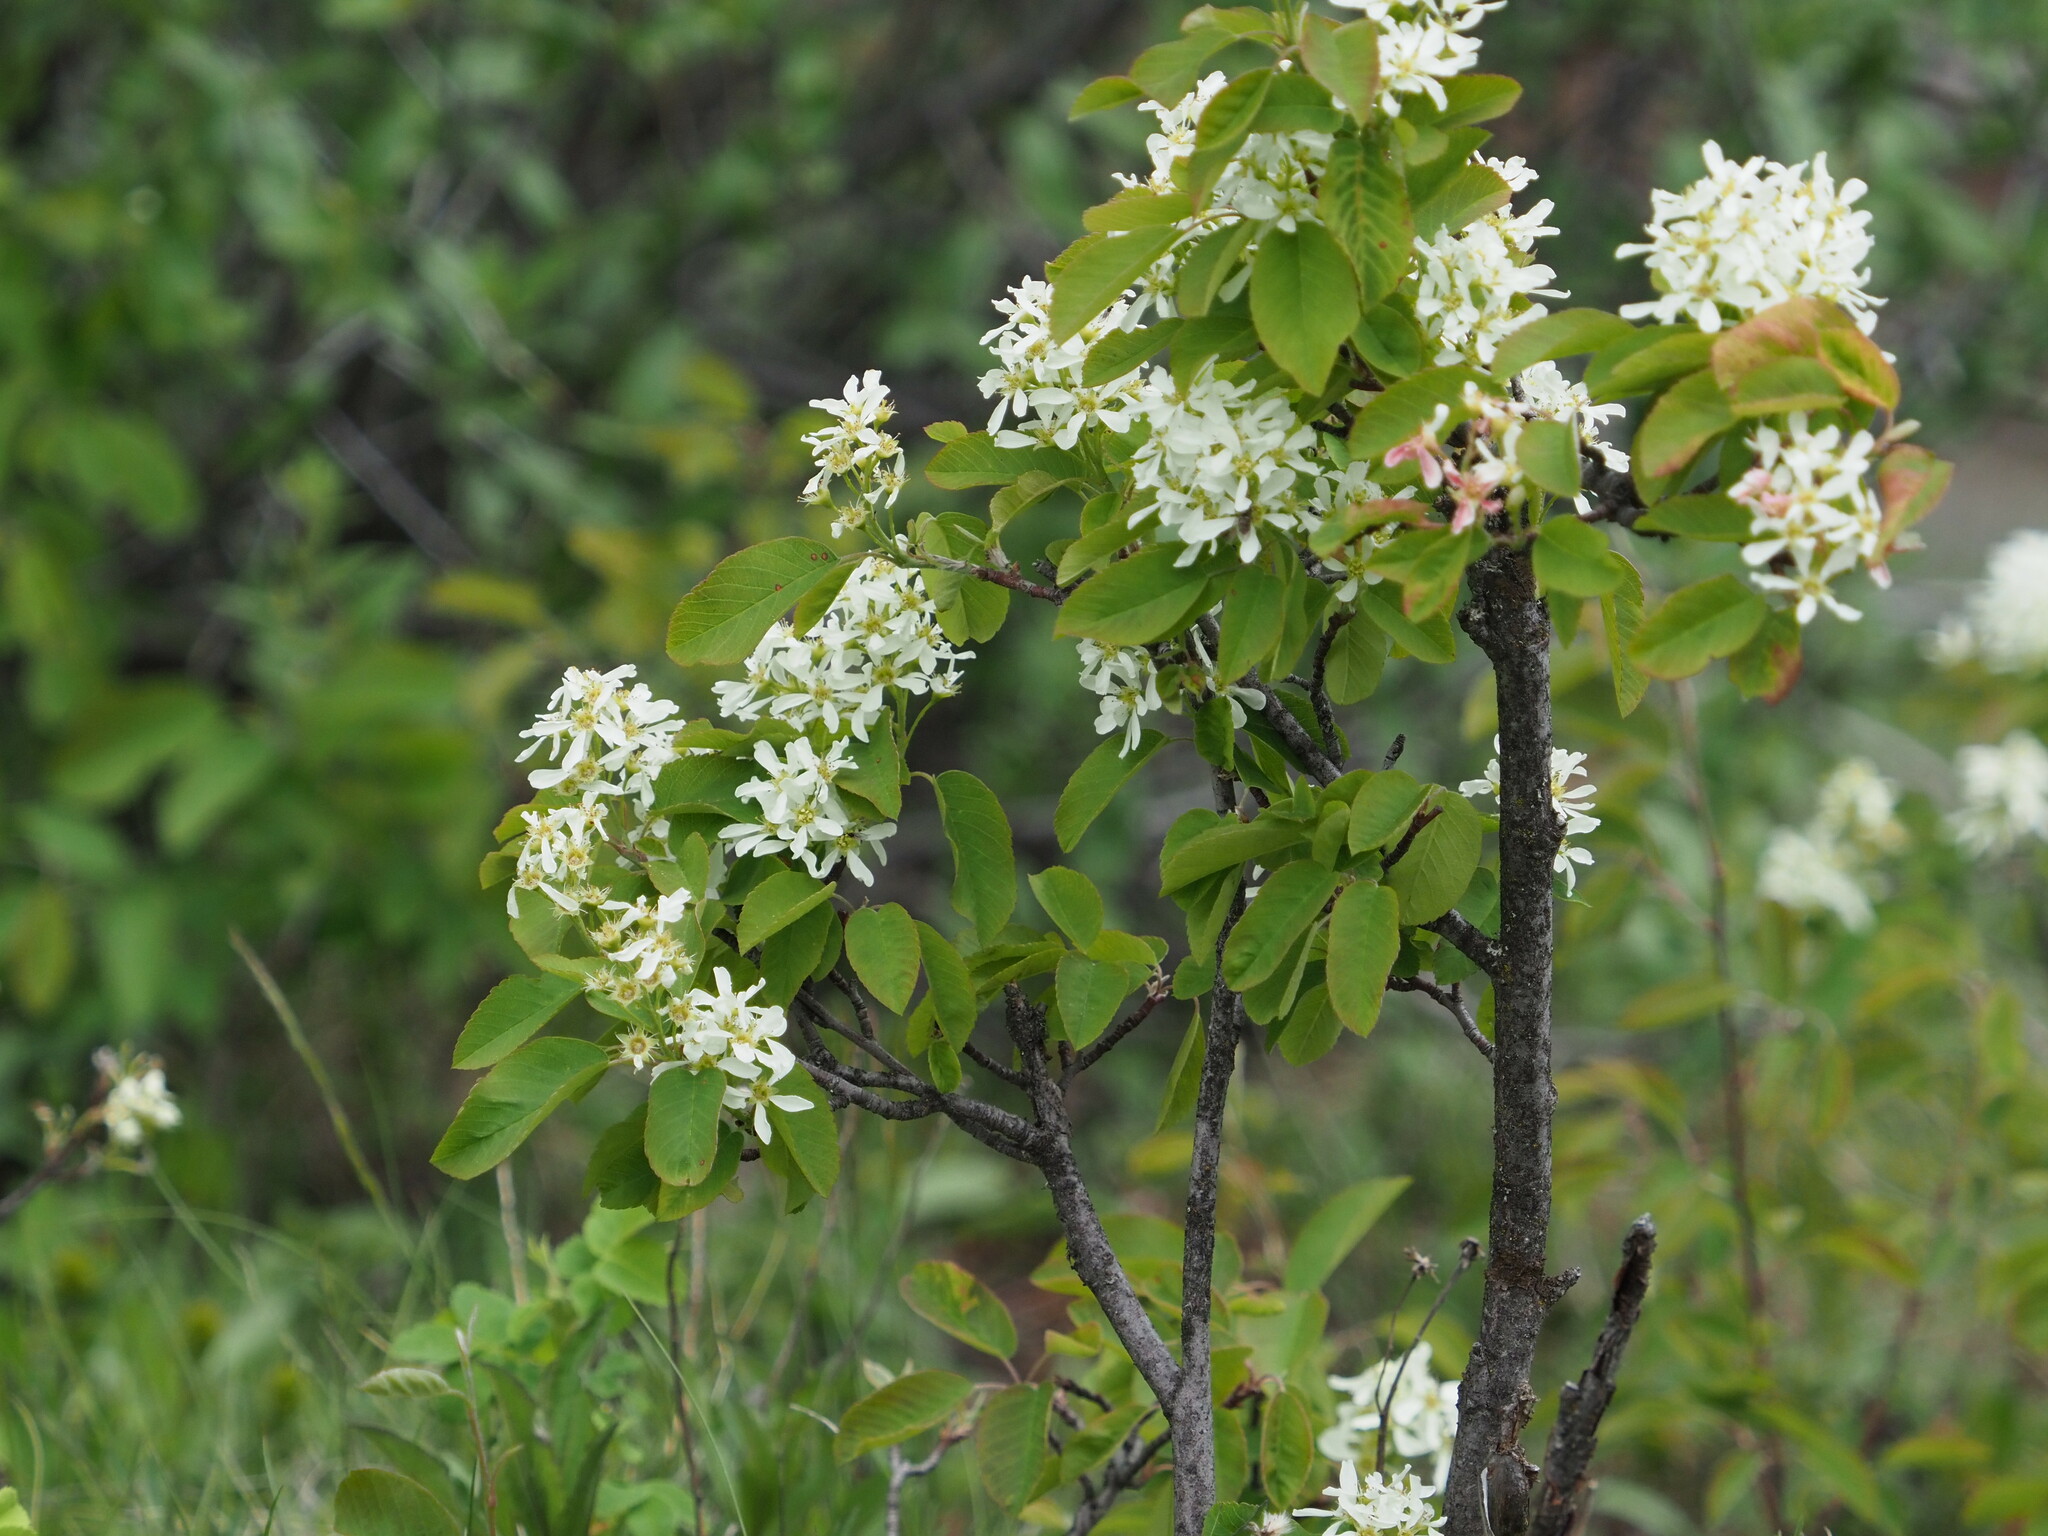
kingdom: Plantae
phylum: Tracheophyta
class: Magnoliopsida
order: Rosales
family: Rosaceae
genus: Amelanchier
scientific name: Amelanchier alnifolia
